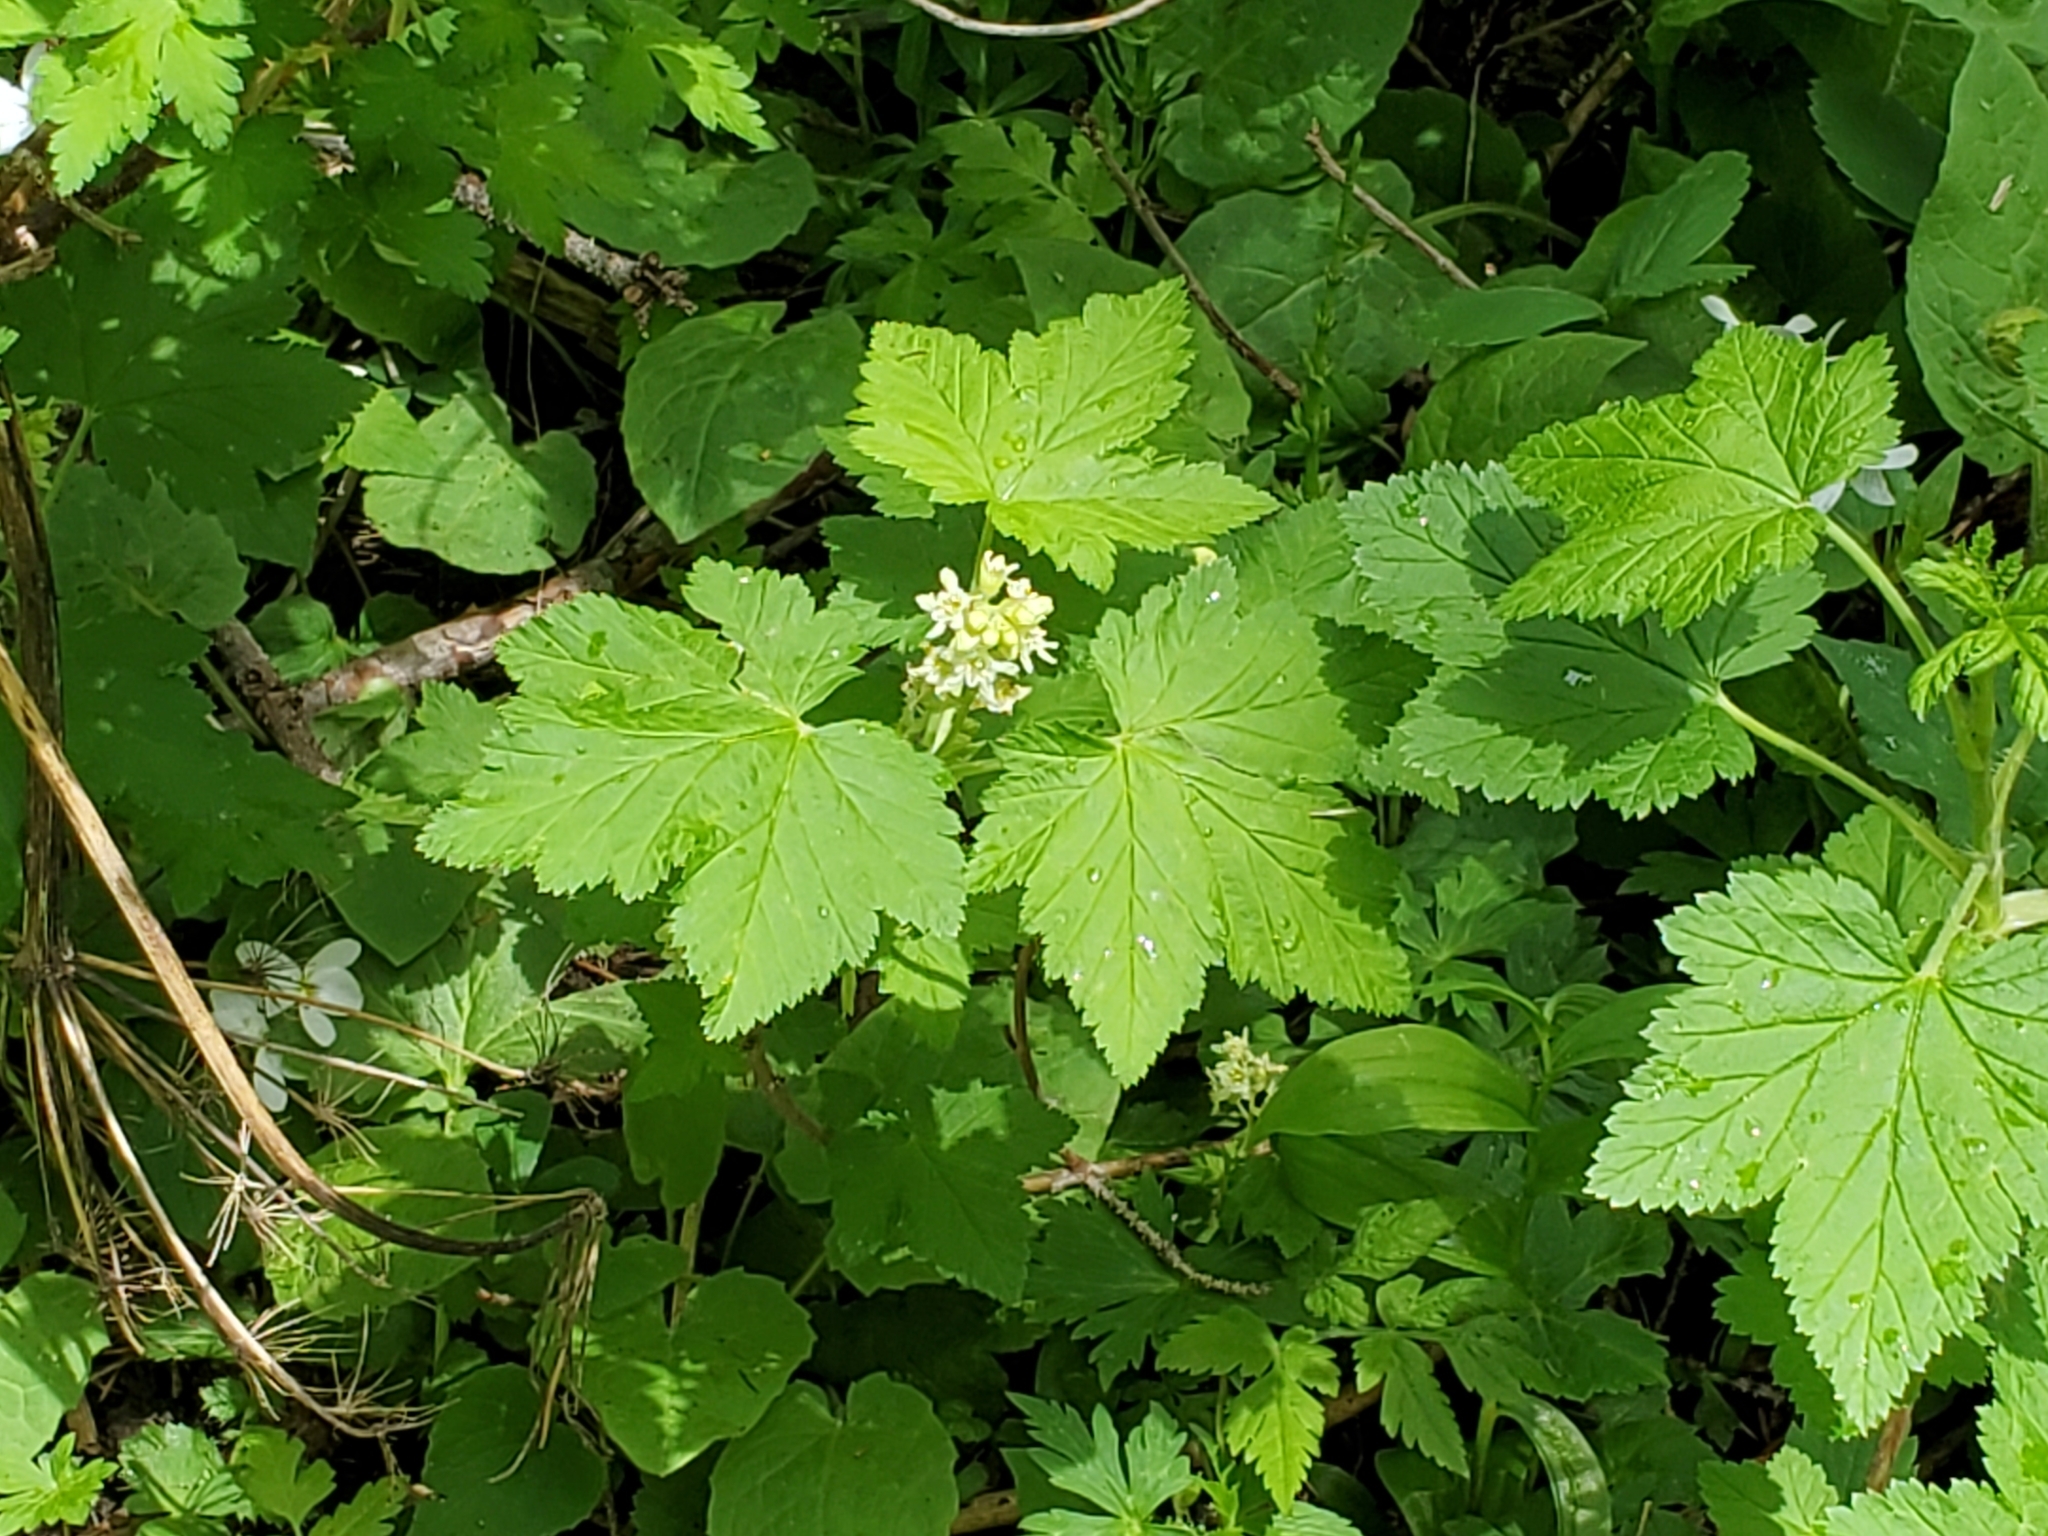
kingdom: Plantae
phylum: Tracheophyta
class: Magnoliopsida
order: Saxifragales
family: Grossulariaceae
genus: Ribes
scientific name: Ribes wolfii
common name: Rothrock currant
